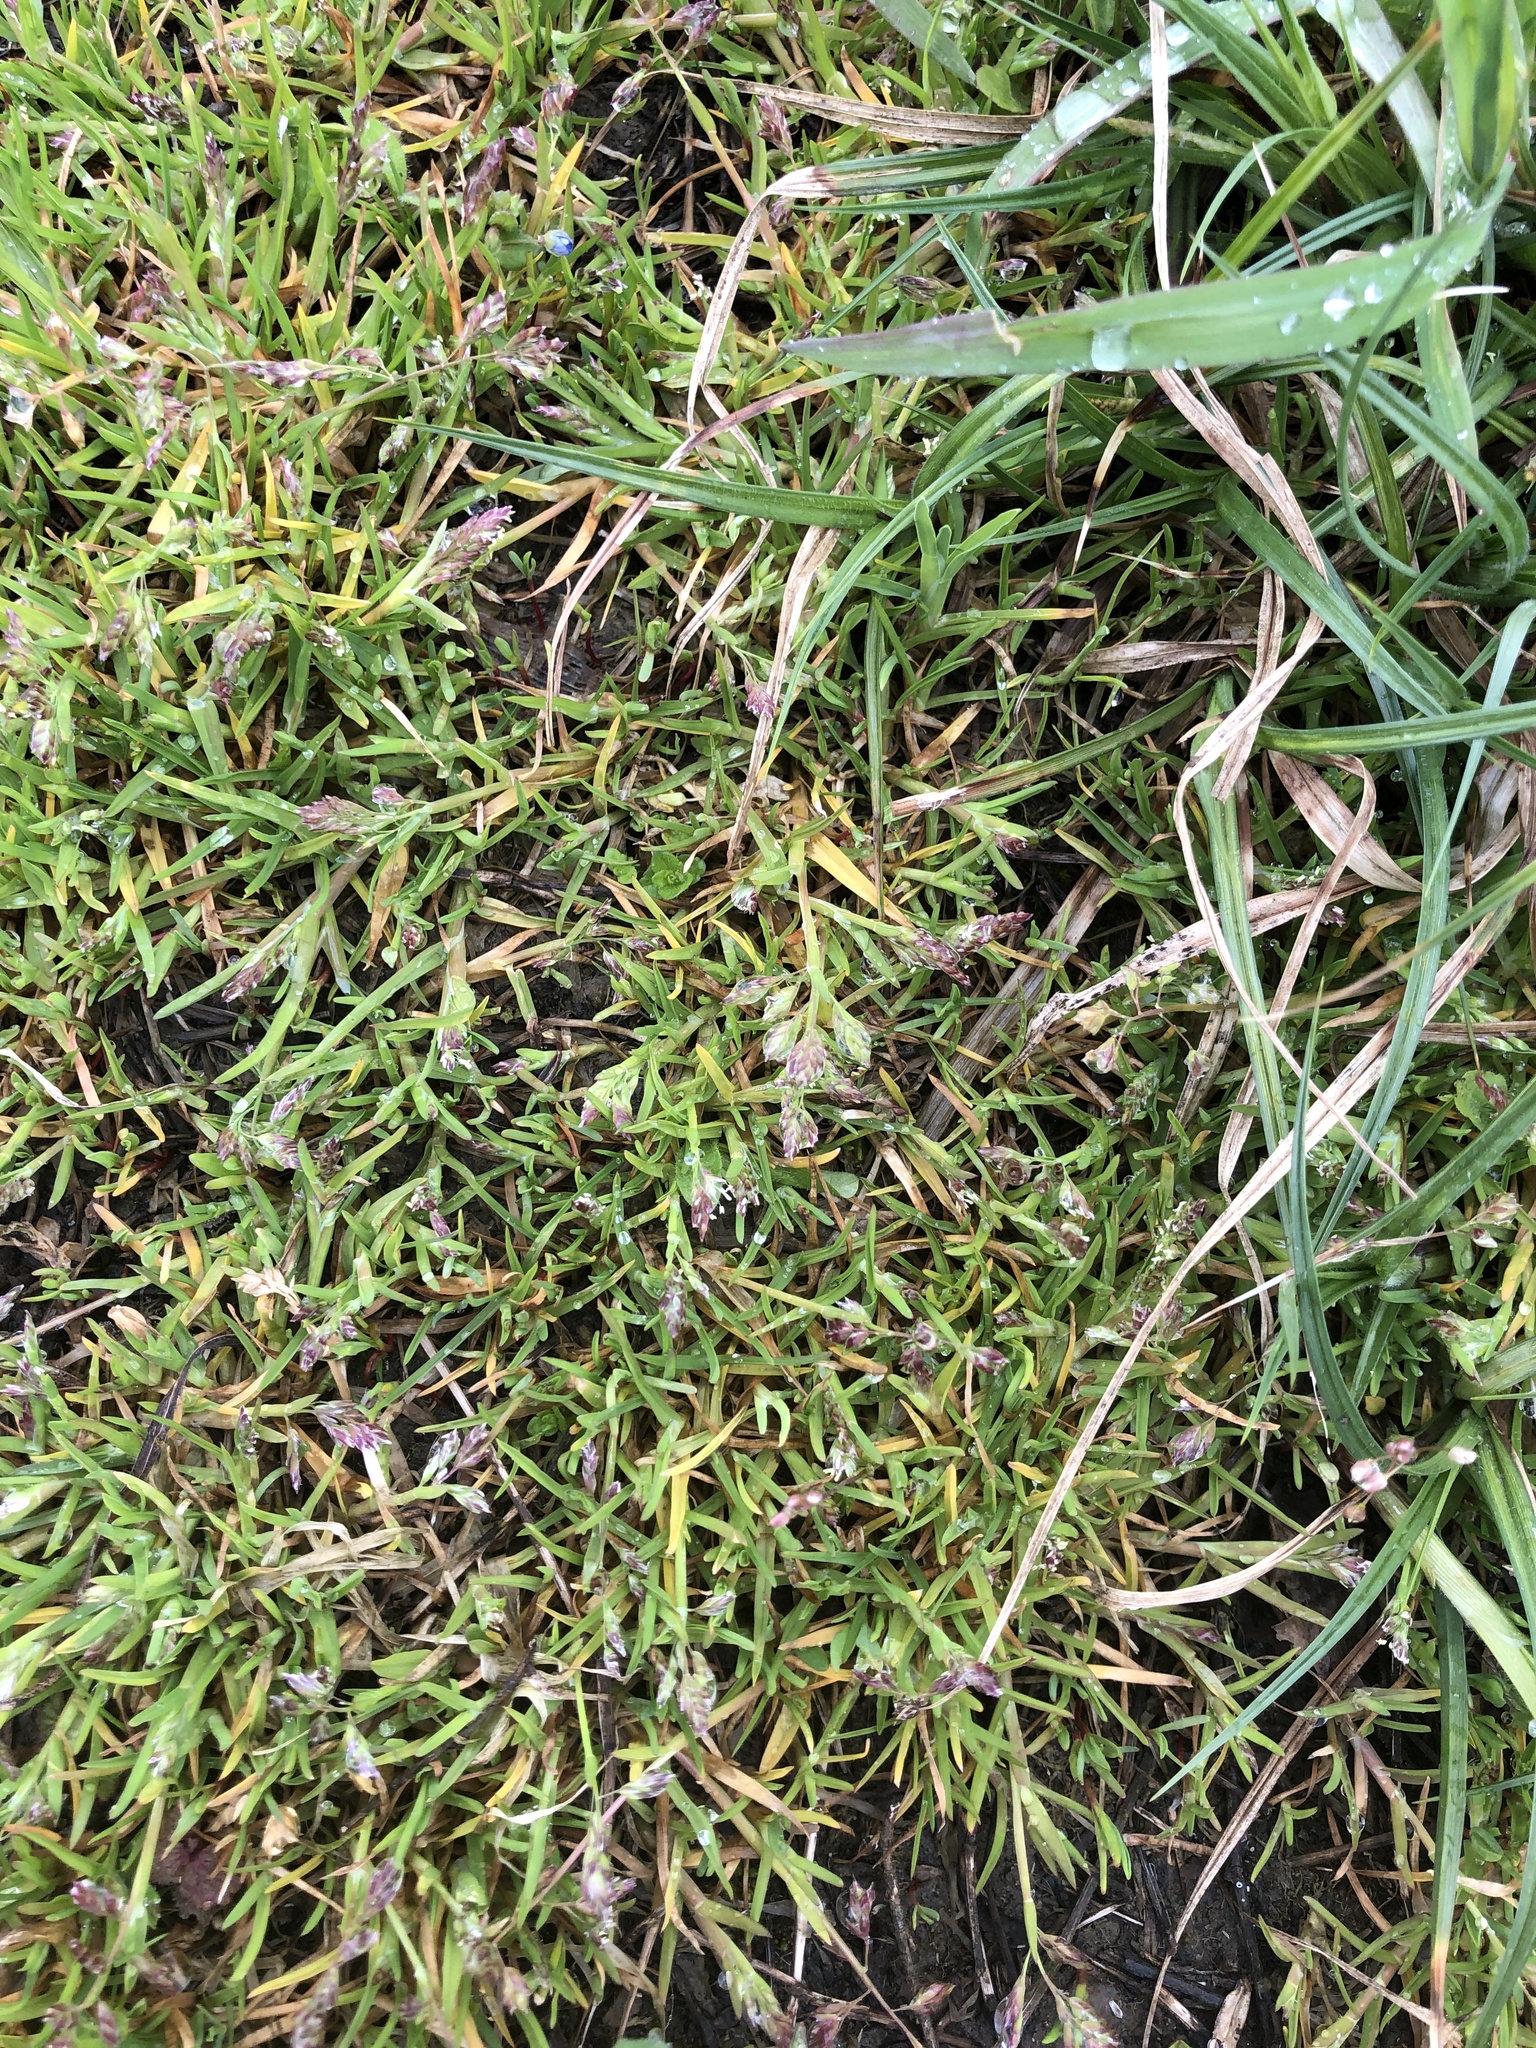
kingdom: Plantae
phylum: Tracheophyta
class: Liliopsida
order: Poales
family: Poaceae
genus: Poa
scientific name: Poa annua
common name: Annual bluegrass
